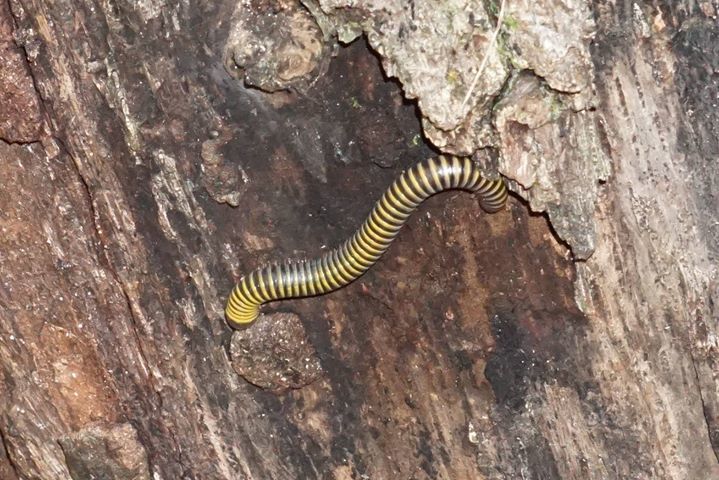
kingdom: Animalia
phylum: Arthropoda
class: Diplopoda
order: Spirobolida
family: Rhinocricidae
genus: Anadenobolus
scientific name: Anadenobolus monilicornis
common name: Caribbean millipede
